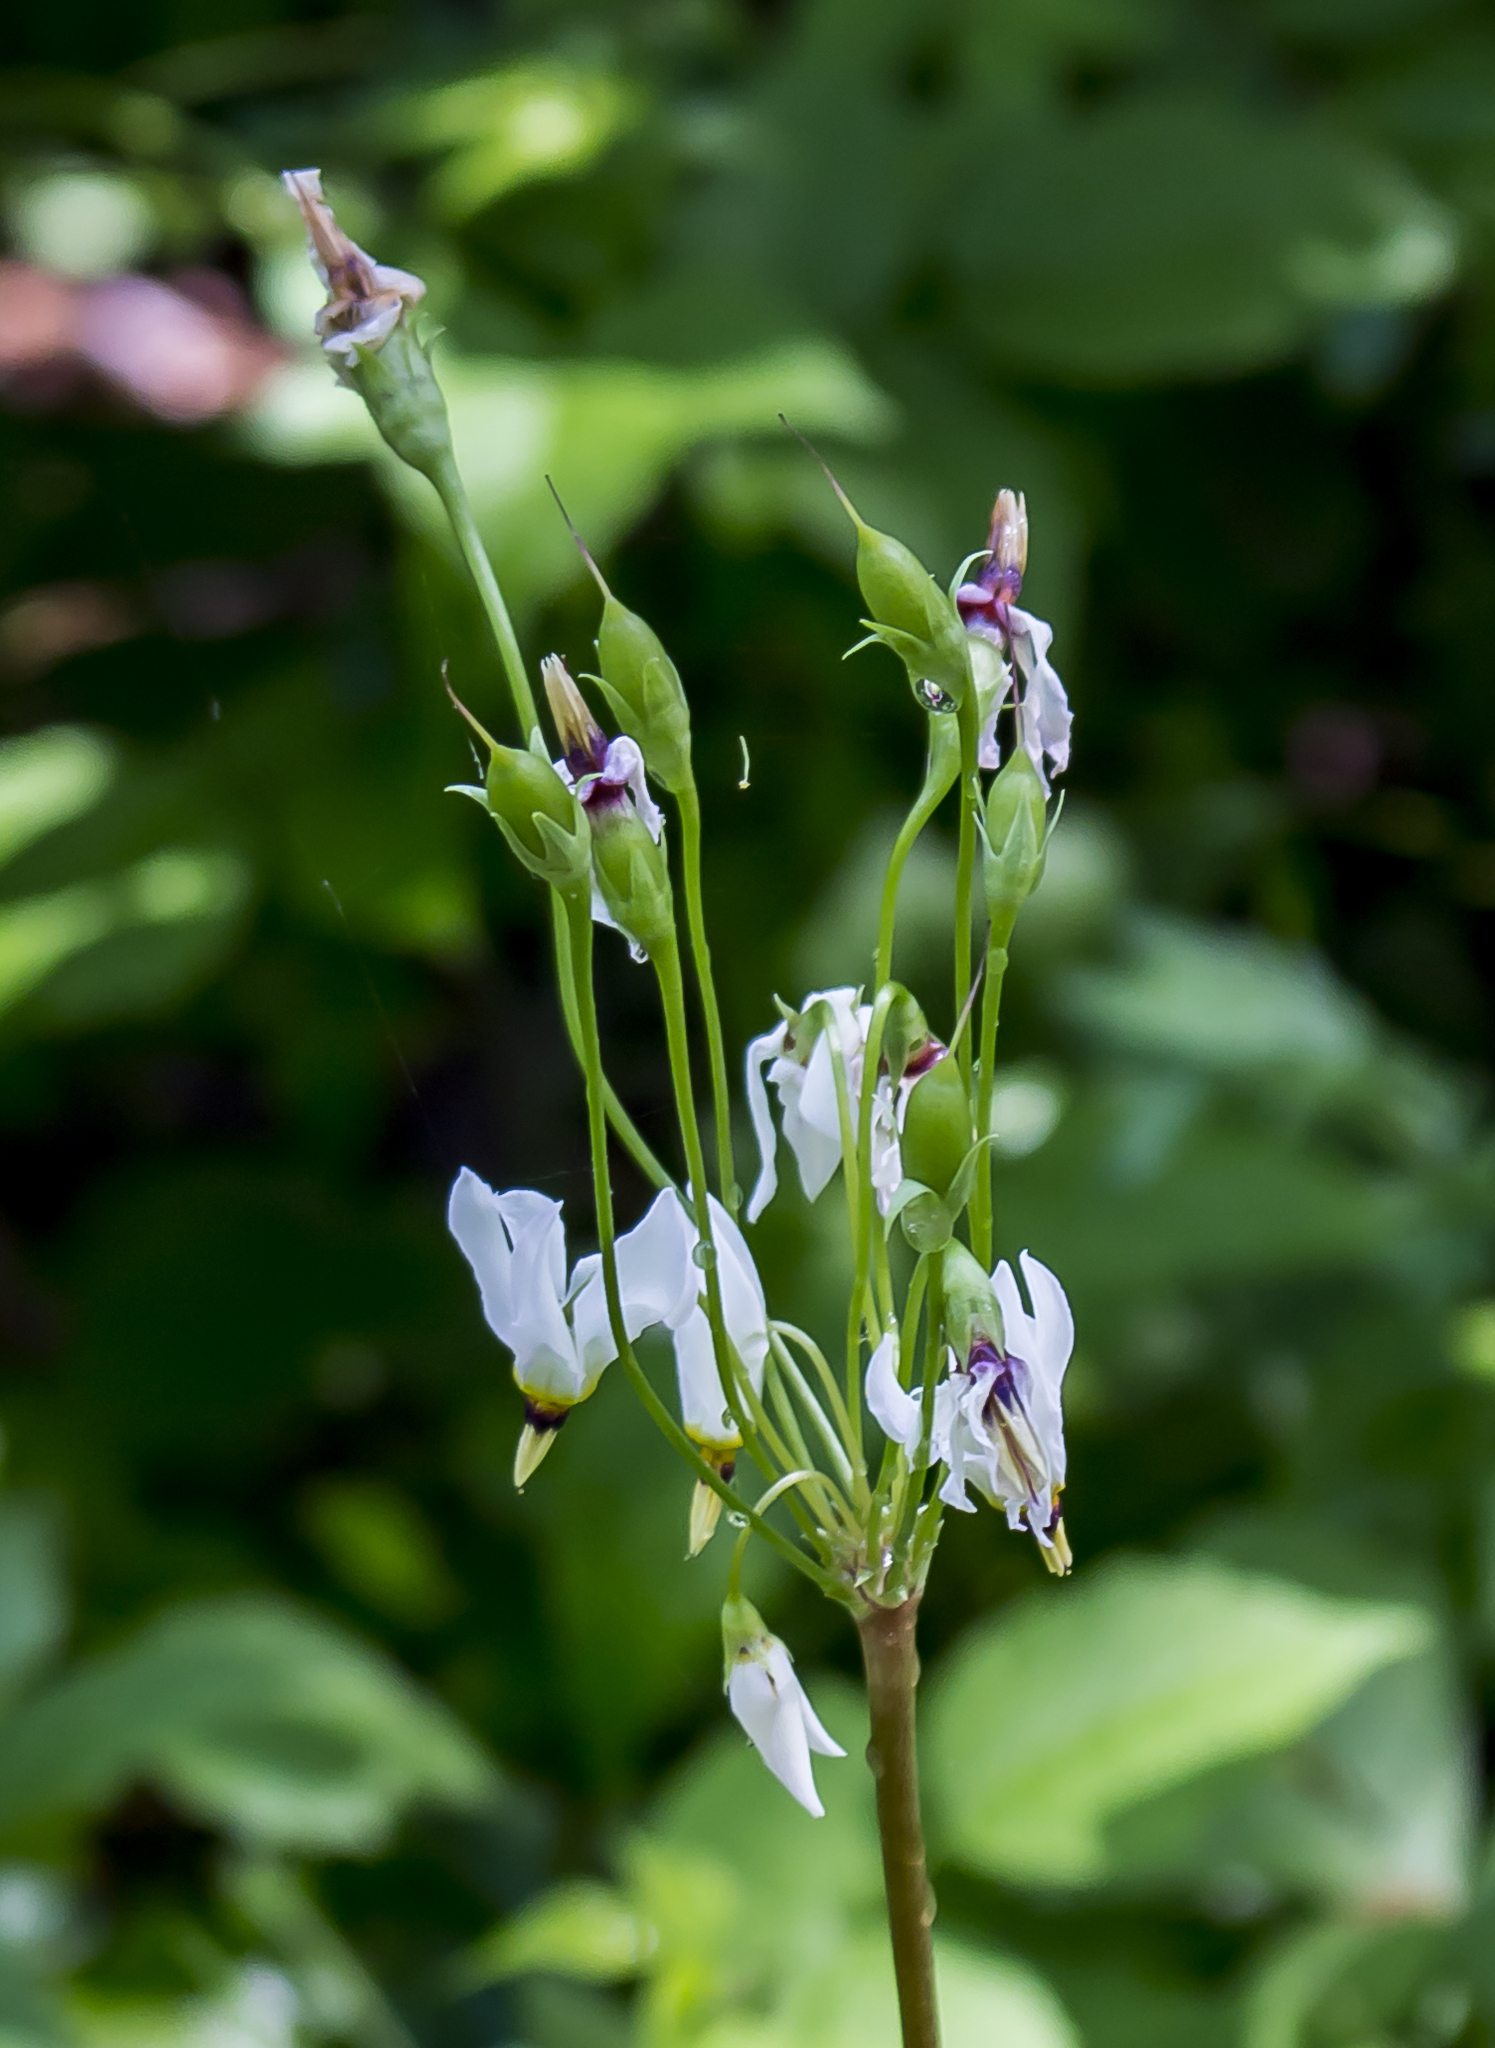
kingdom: Plantae
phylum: Tracheophyta
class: Magnoliopsida
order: Ericales
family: Primulaceae
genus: Dodecatheon
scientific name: Dodecatheon meadia
